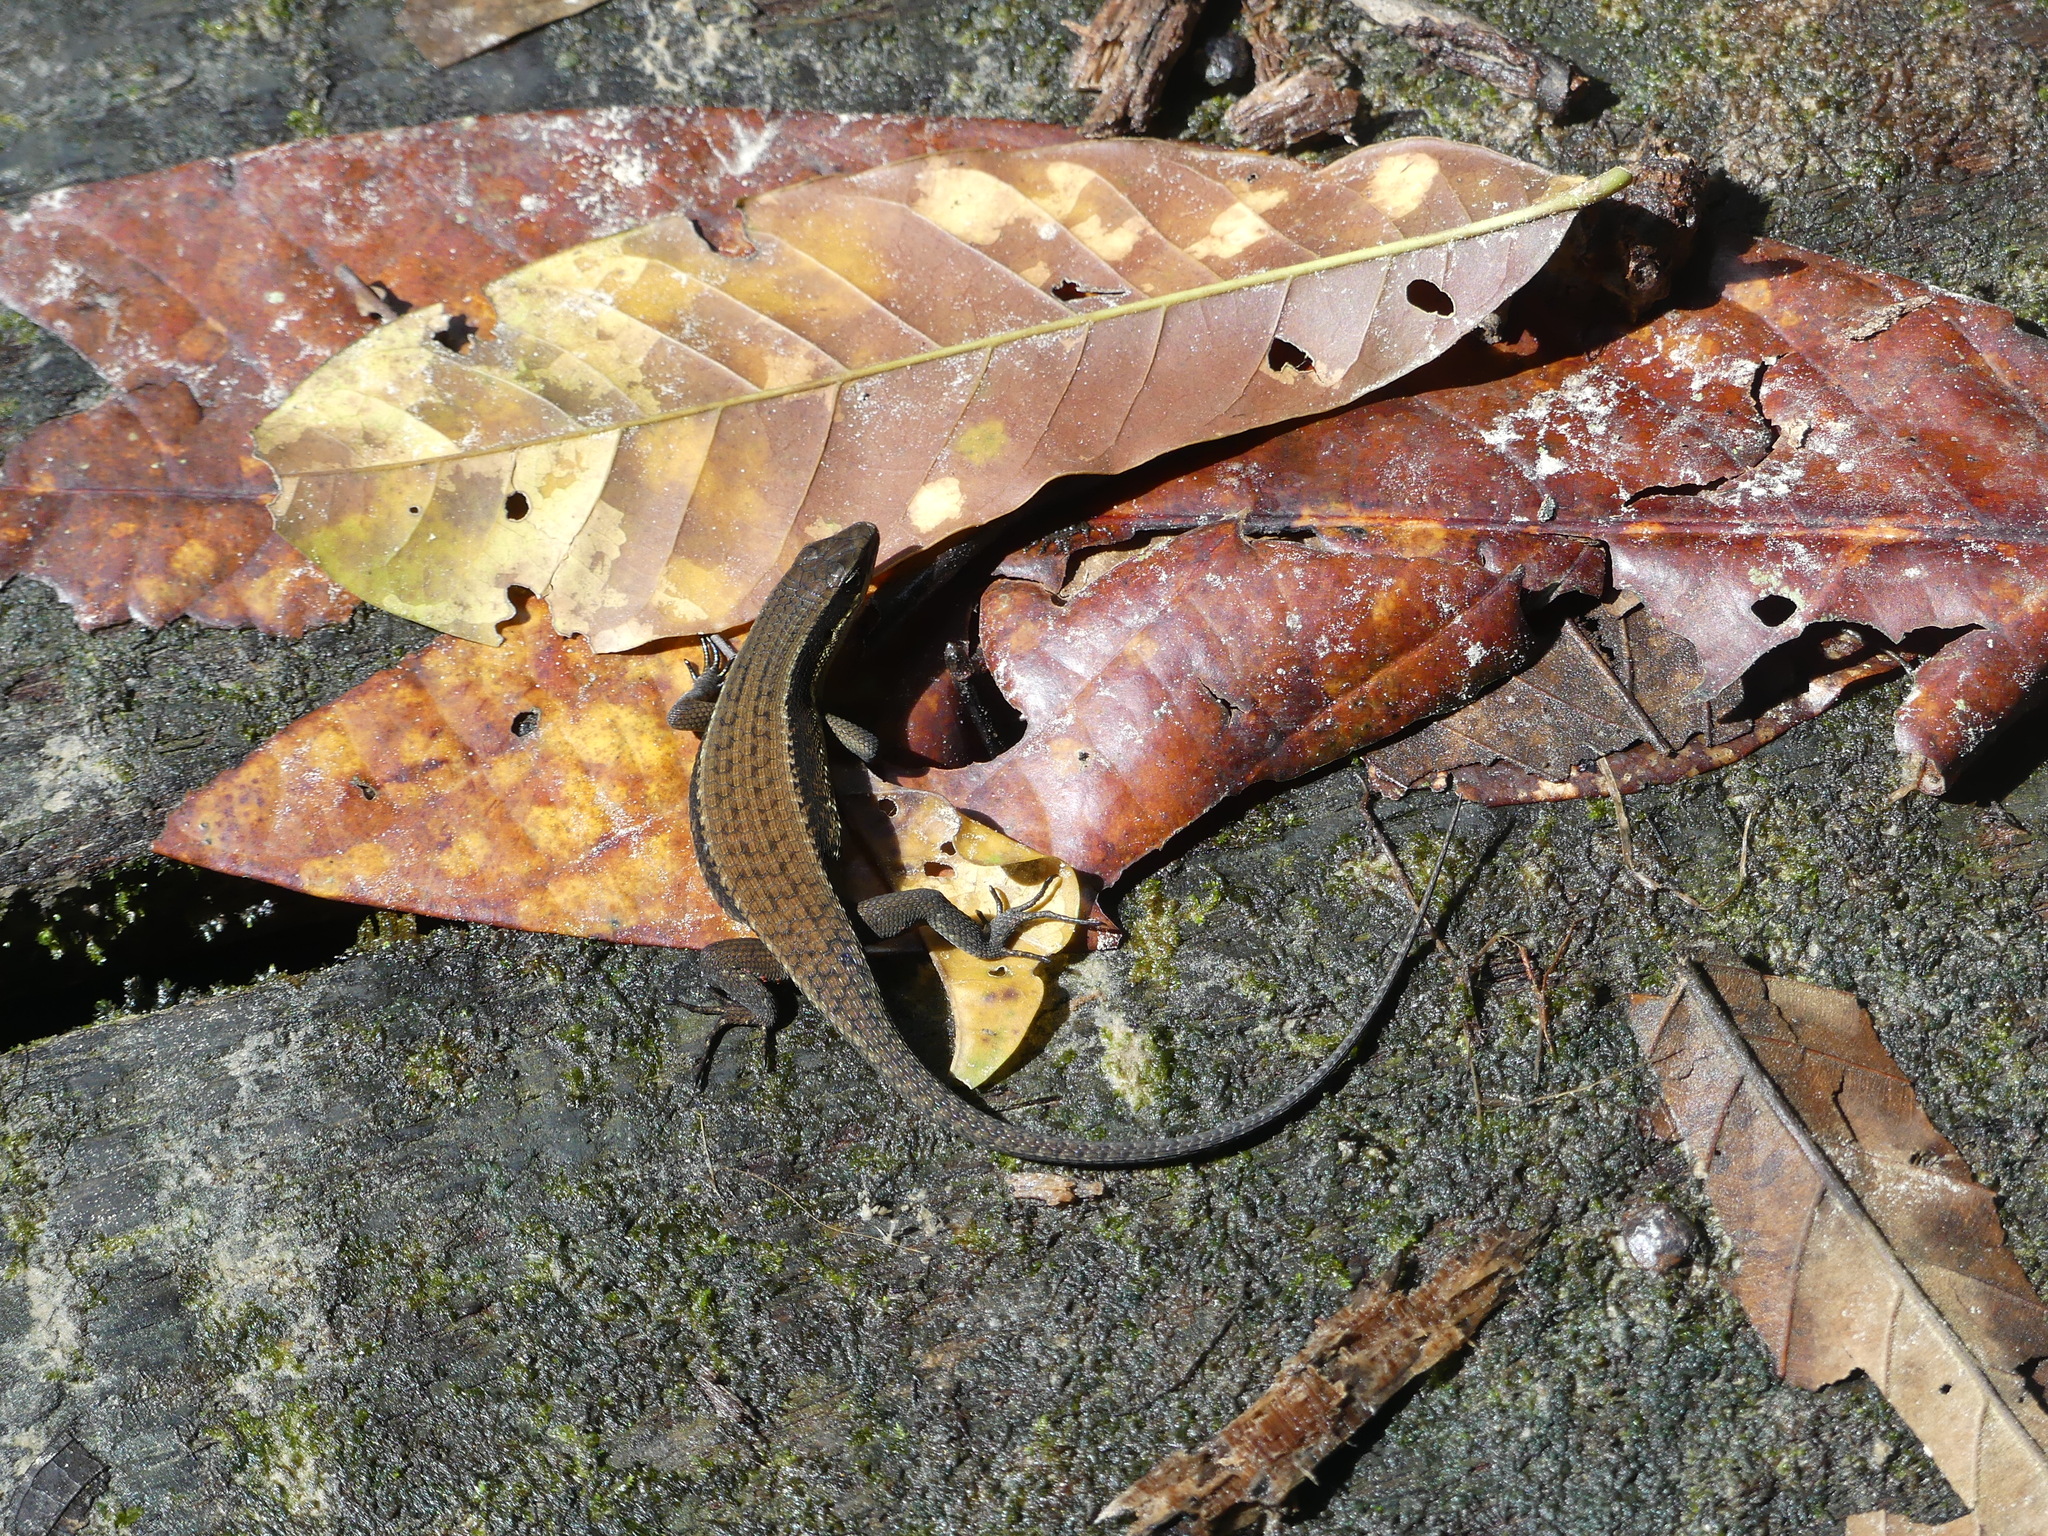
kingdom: Animalia
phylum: Chordata
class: Squamata
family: Scincidae
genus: Eutropis
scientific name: Eutropis rudis
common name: Rough mabuya
